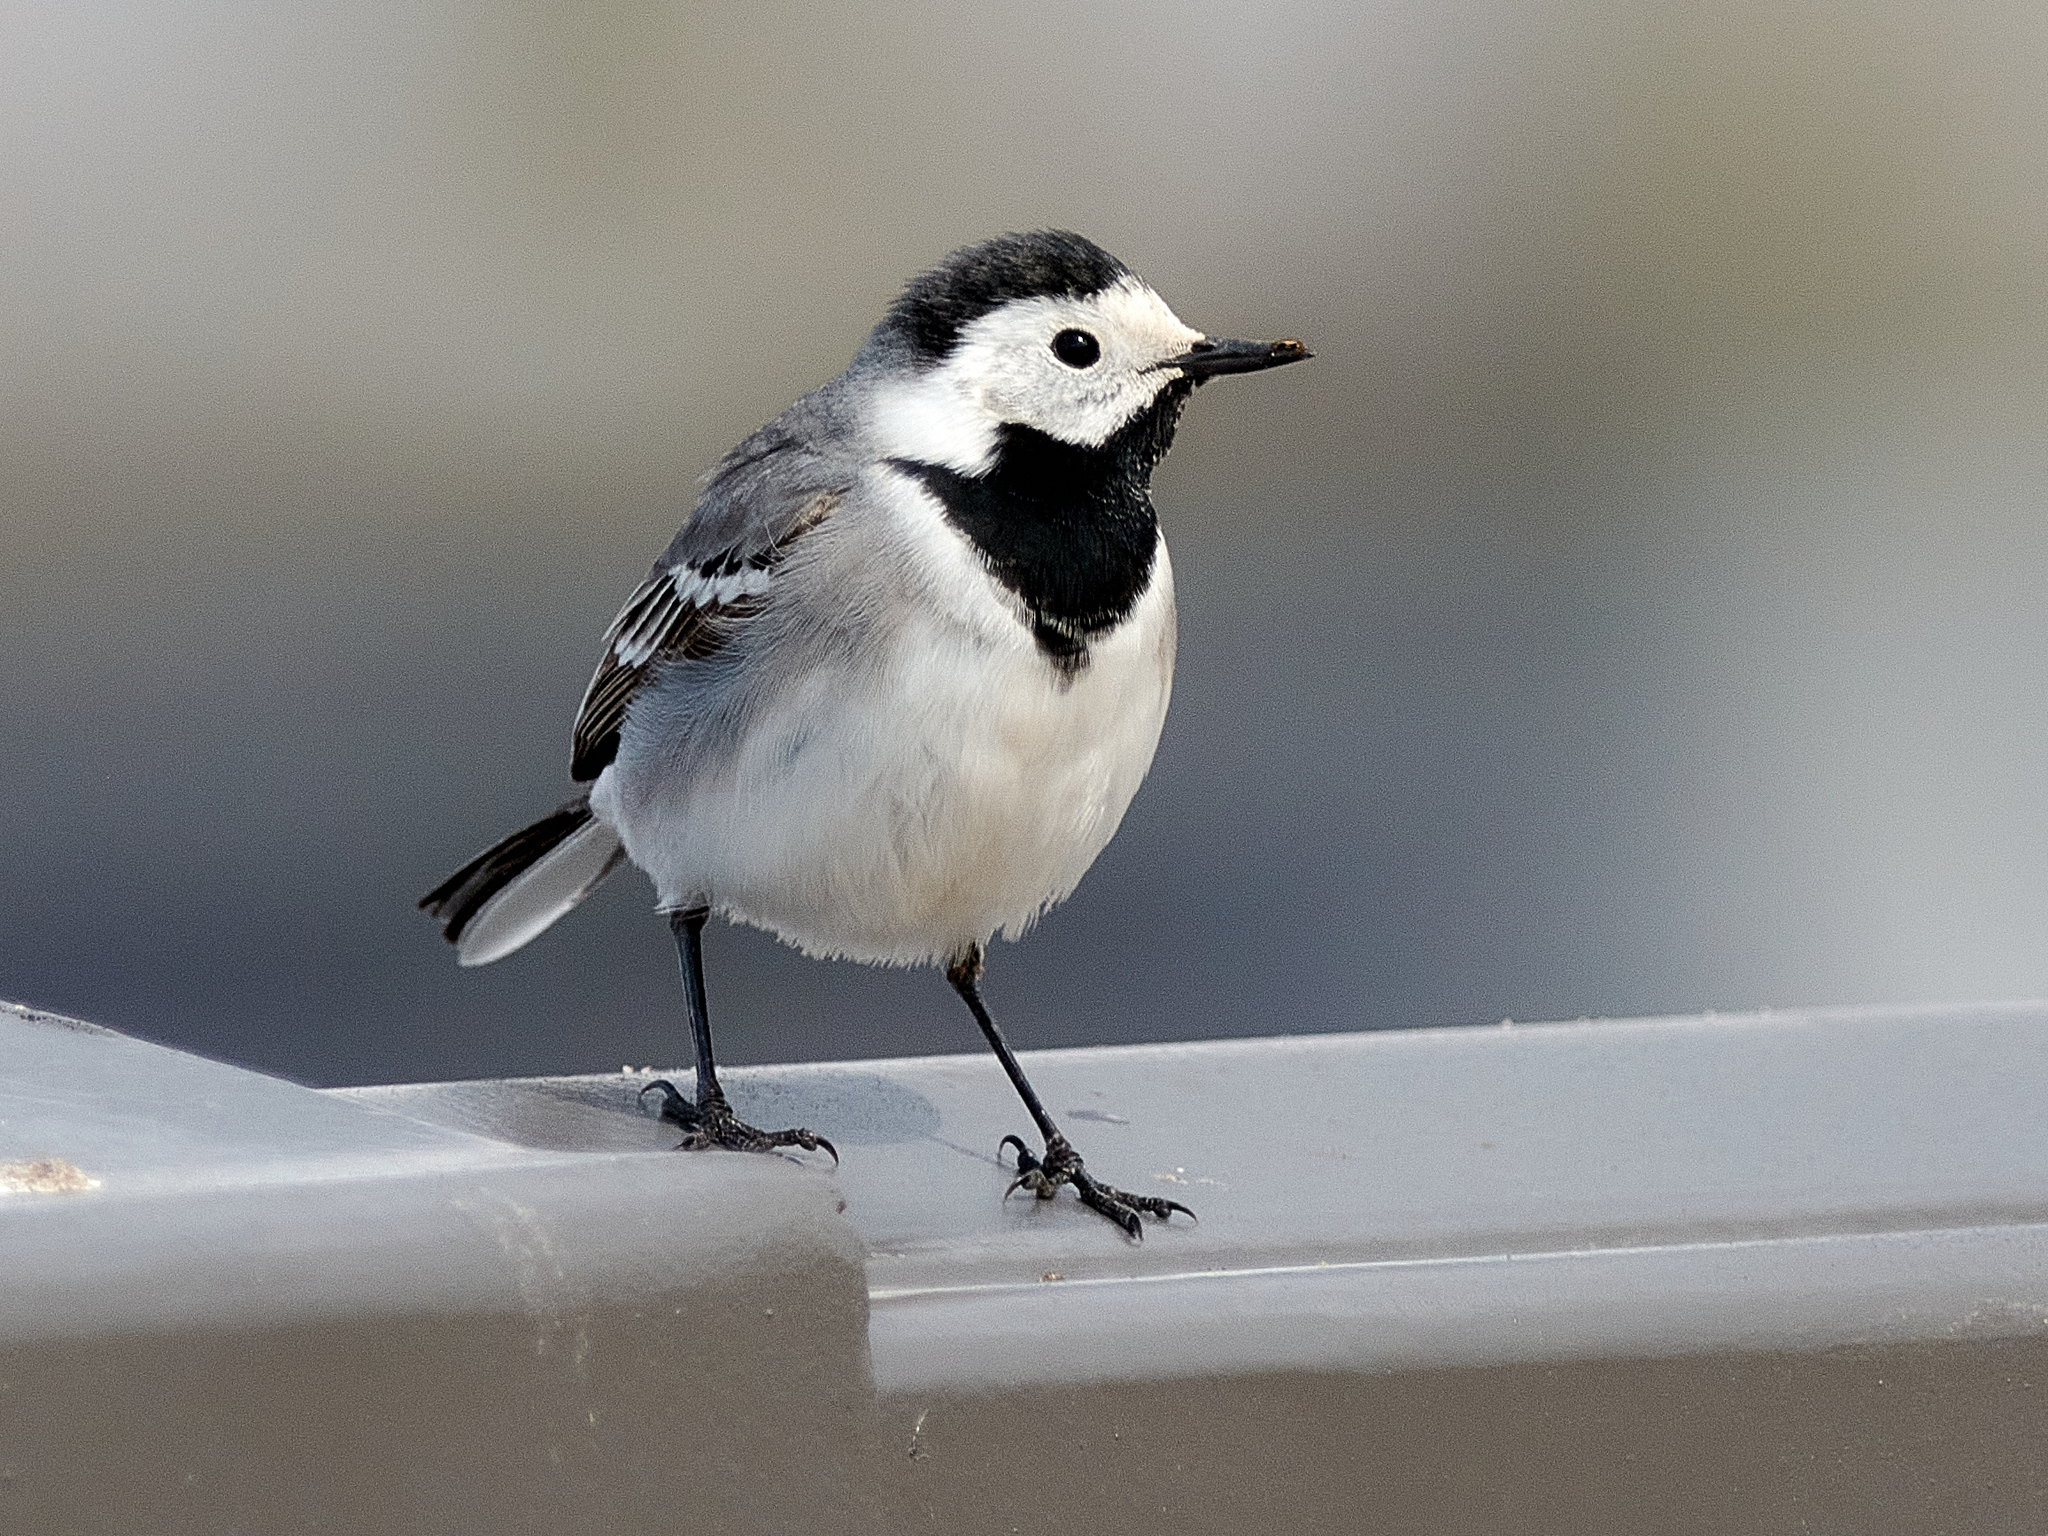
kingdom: Animalia
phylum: Chordata
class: Aves
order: Passeriformes
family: Motacillidae
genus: Motacilla
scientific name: Motacilla alba
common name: White wagtail
